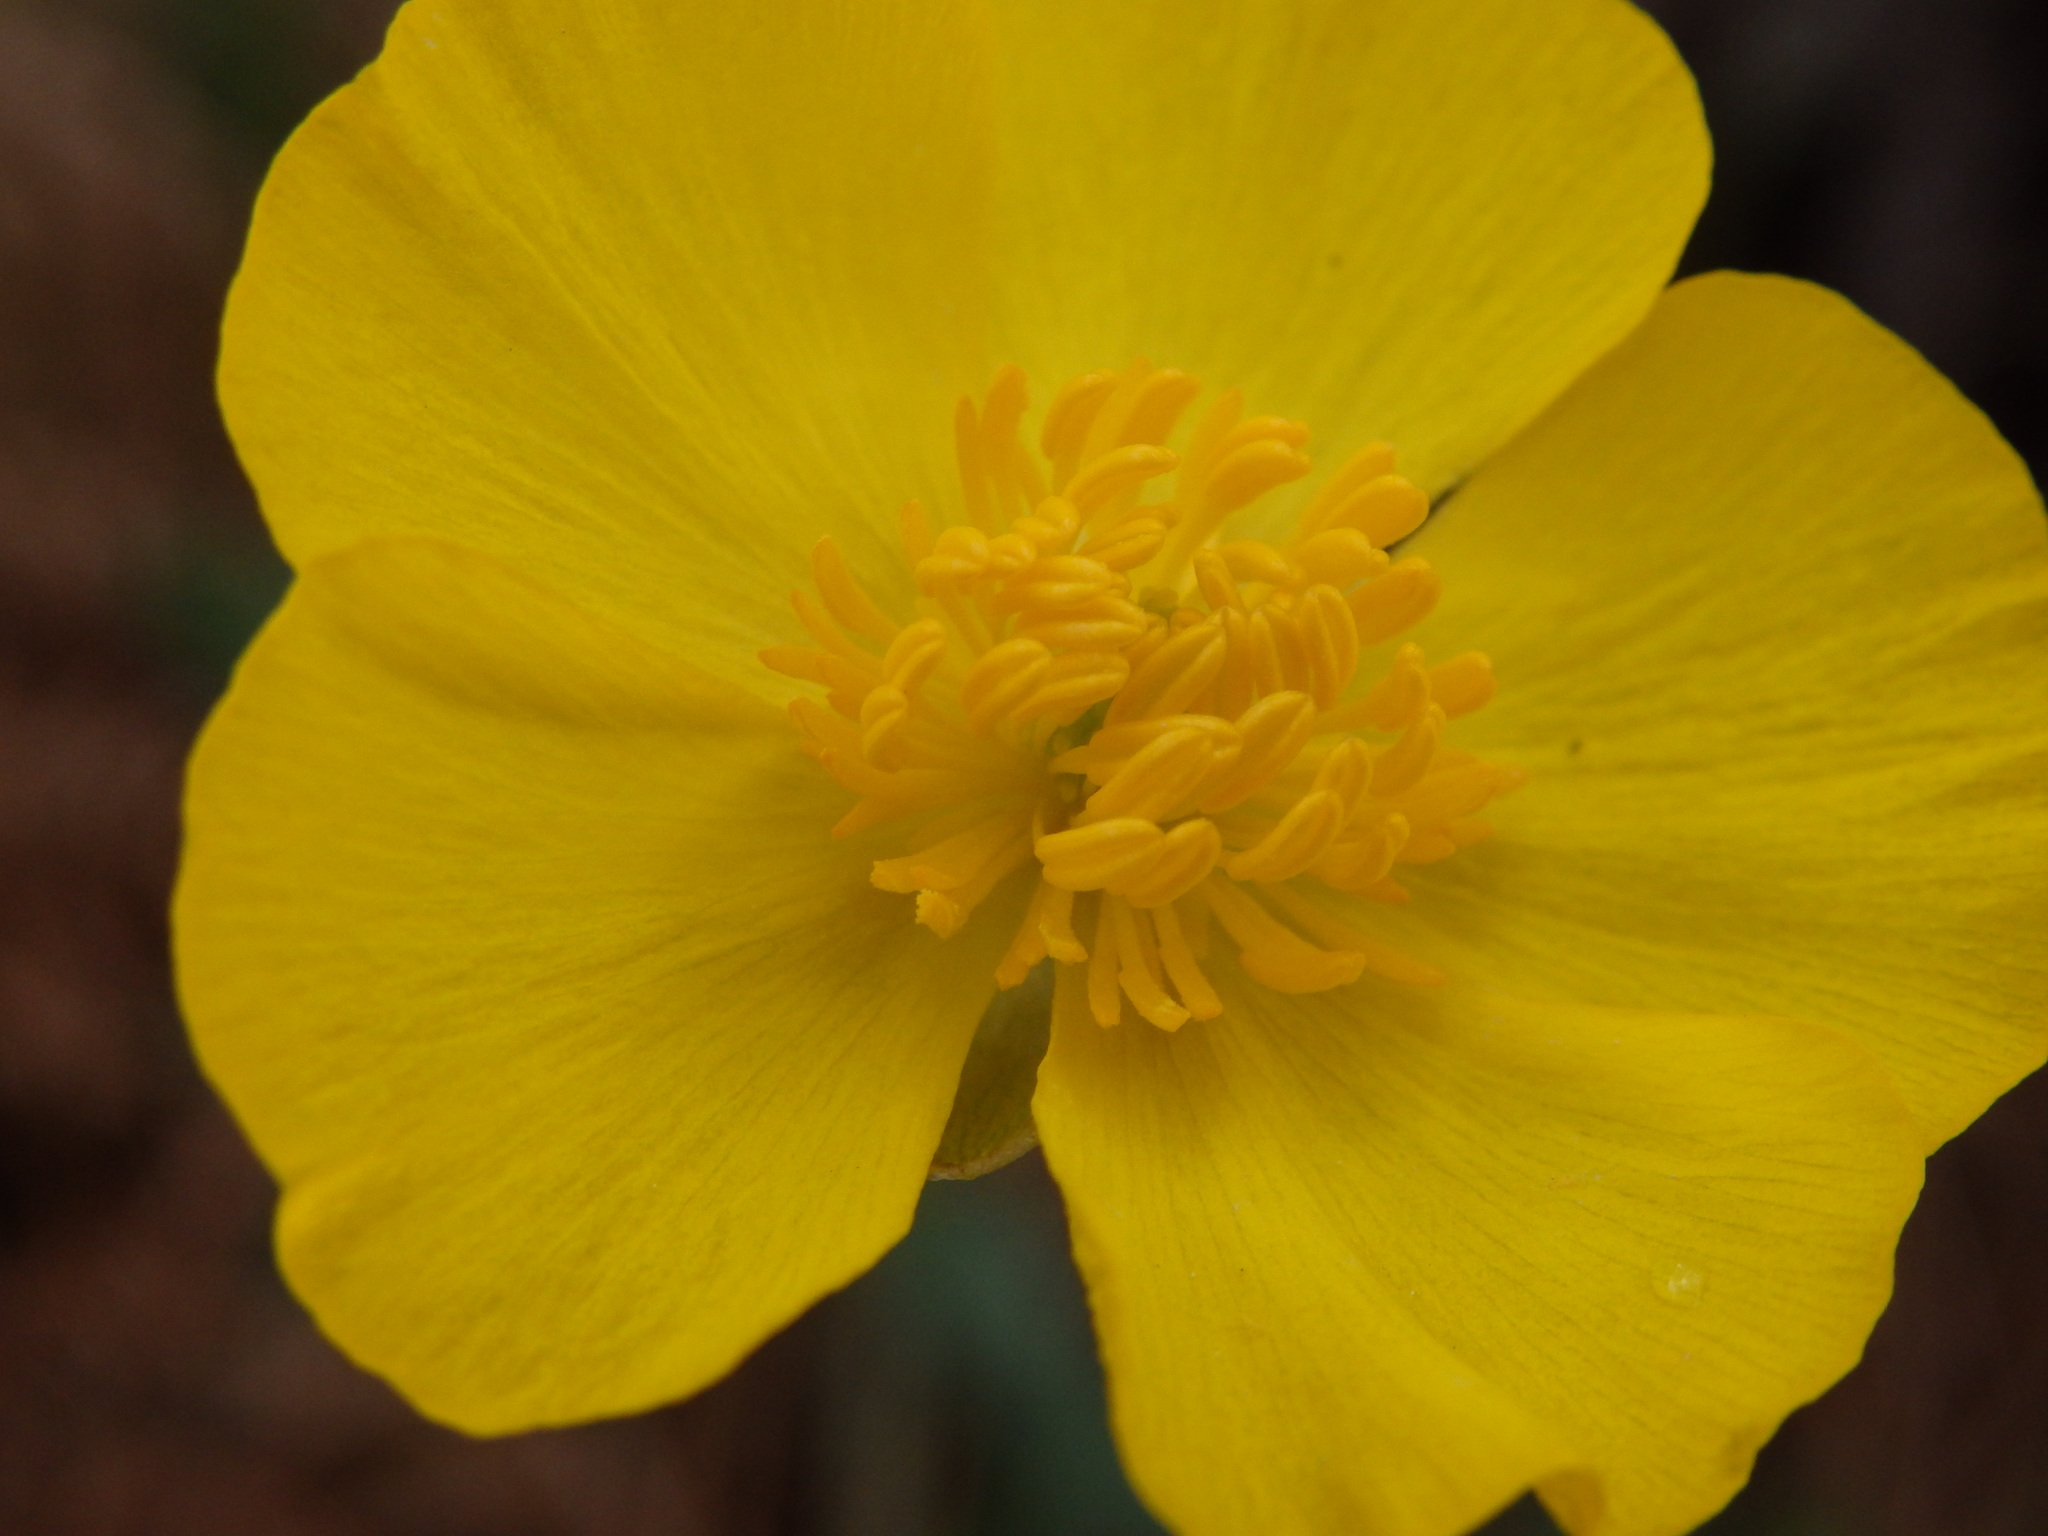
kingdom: Plantae
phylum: Tracheophyta
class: Magnoliopsida
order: Ranunculales
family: Ranunculaceae
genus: Ranunculus
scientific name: Ranunculus bupleuroides
